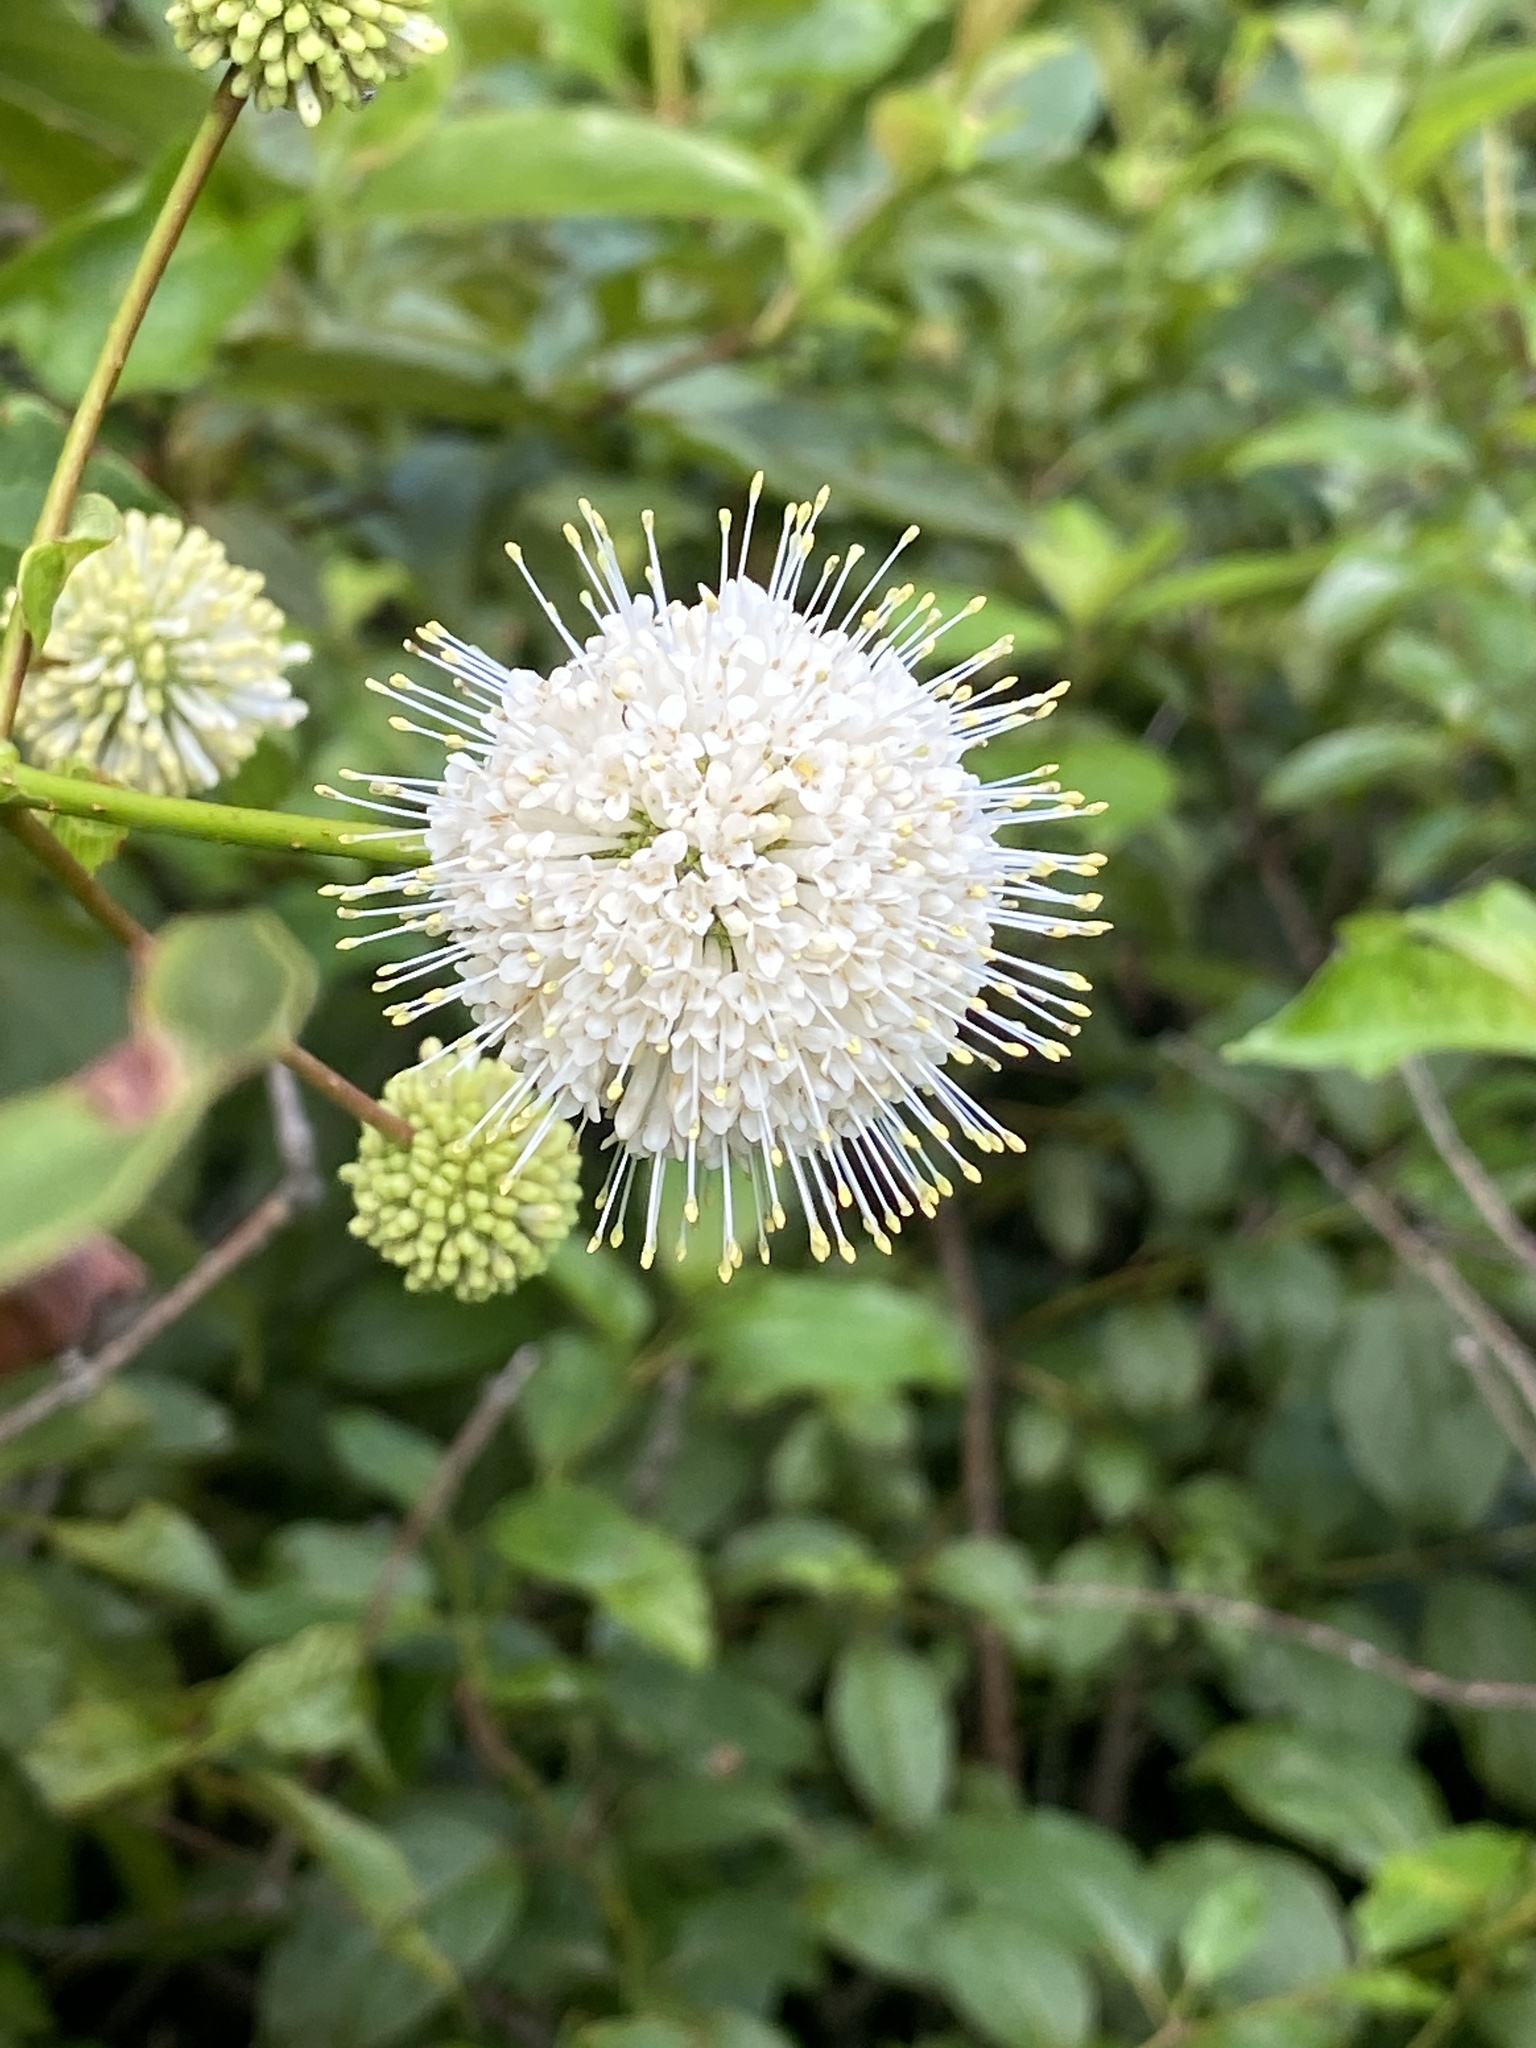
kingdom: Plantae
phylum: Tracheophyta
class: Magnoliopsida
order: Gentianales
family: Rubiaceae
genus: Cephalanthus
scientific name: Cephalanthus occidentalis
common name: Button-willow
